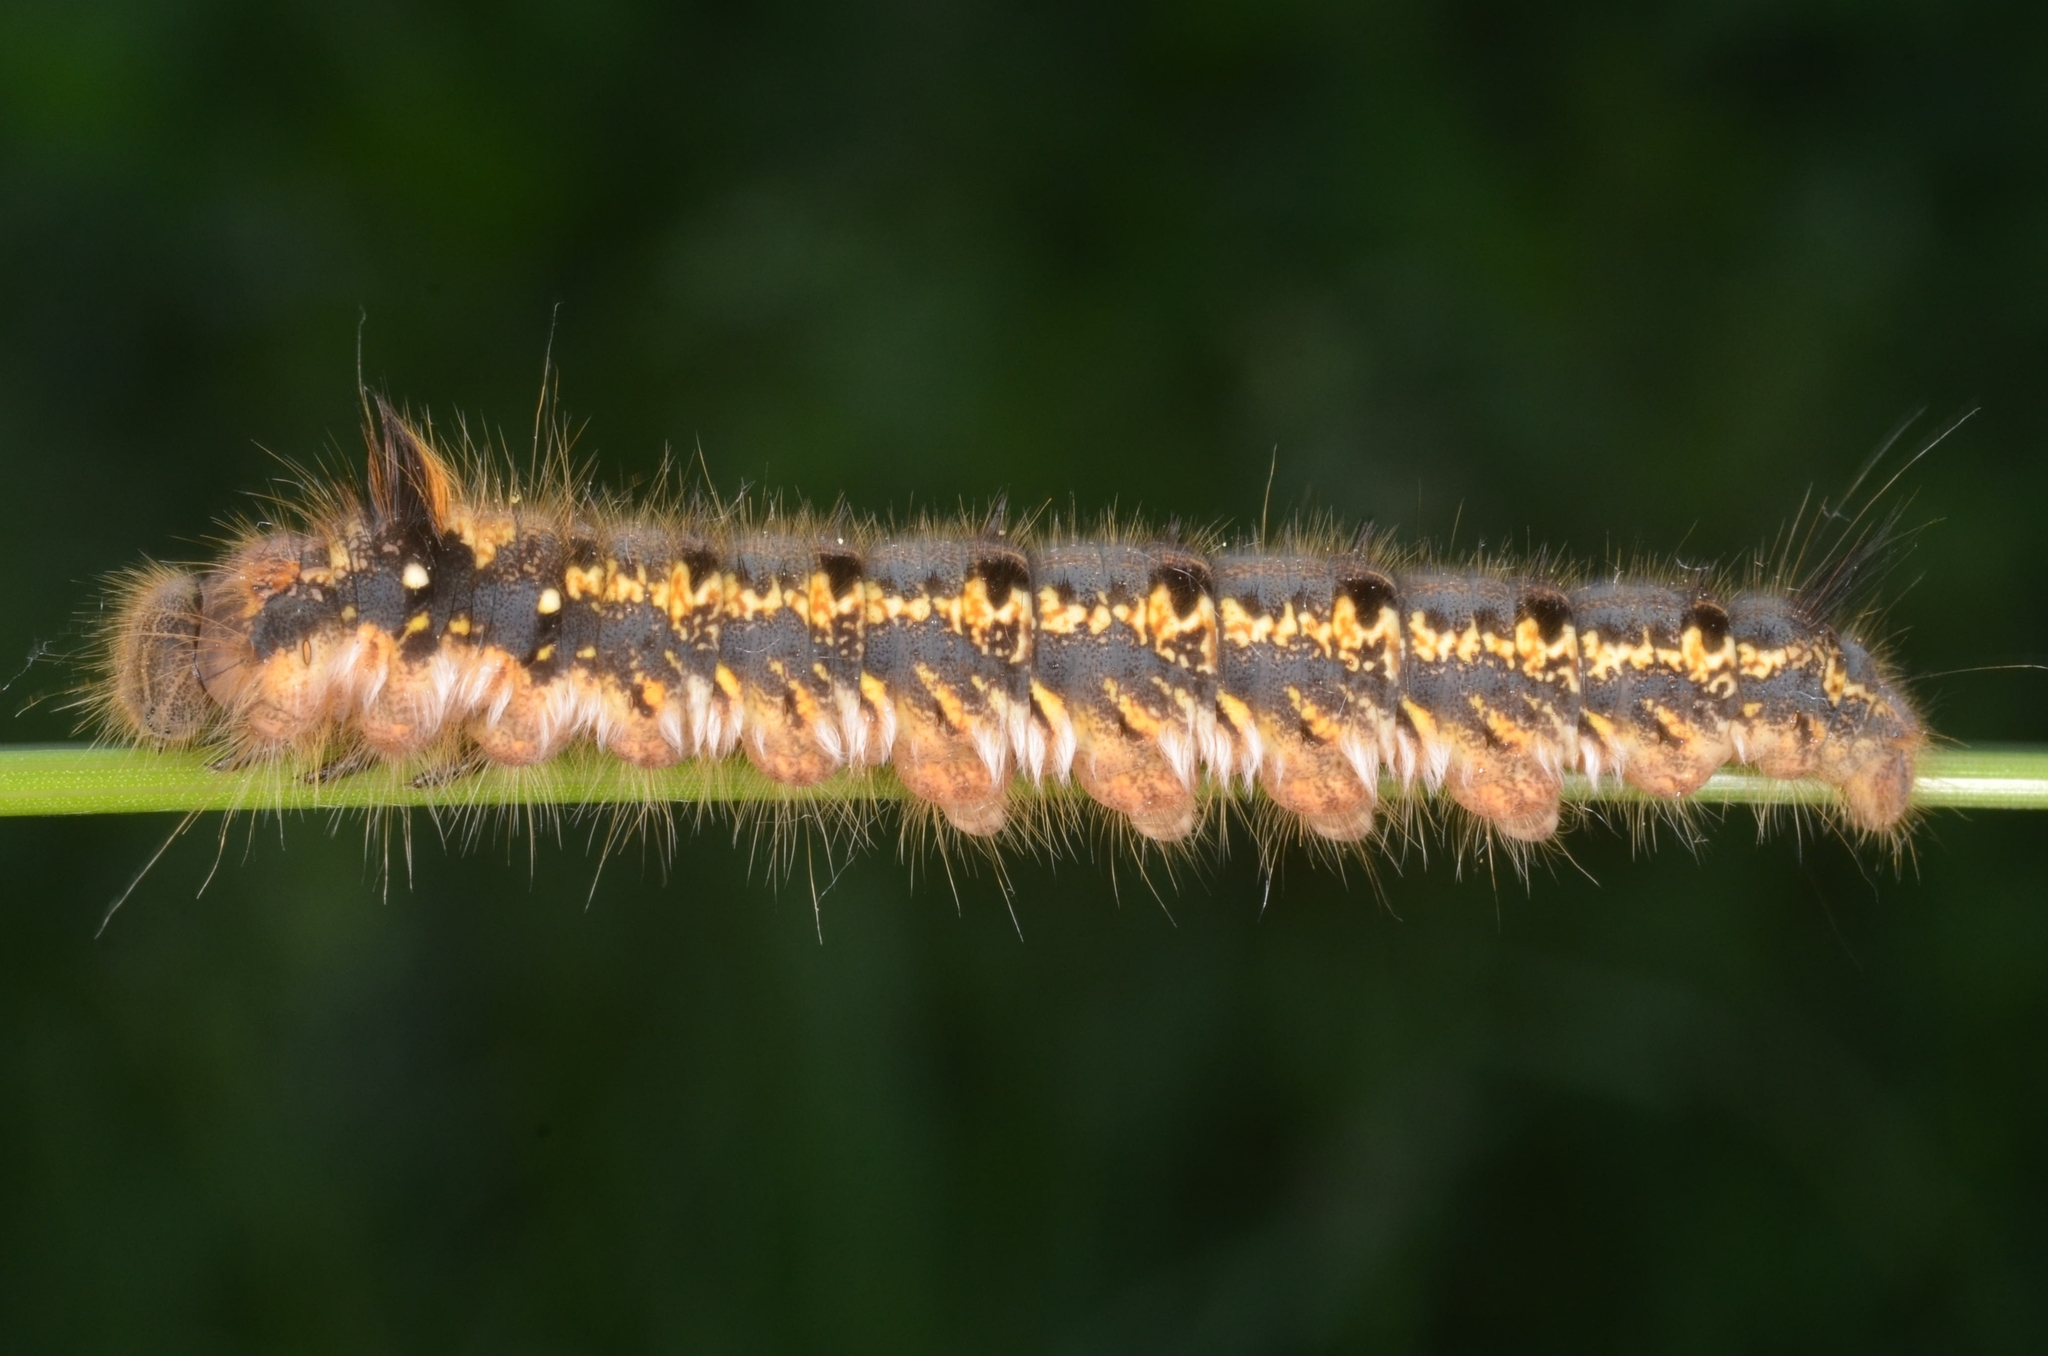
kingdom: Animalia
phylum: Arthropoda
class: Insecta
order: Lepidoptera
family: Lasiocampidae
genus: Euthrix
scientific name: Euthrix potatoria
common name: Drinker
